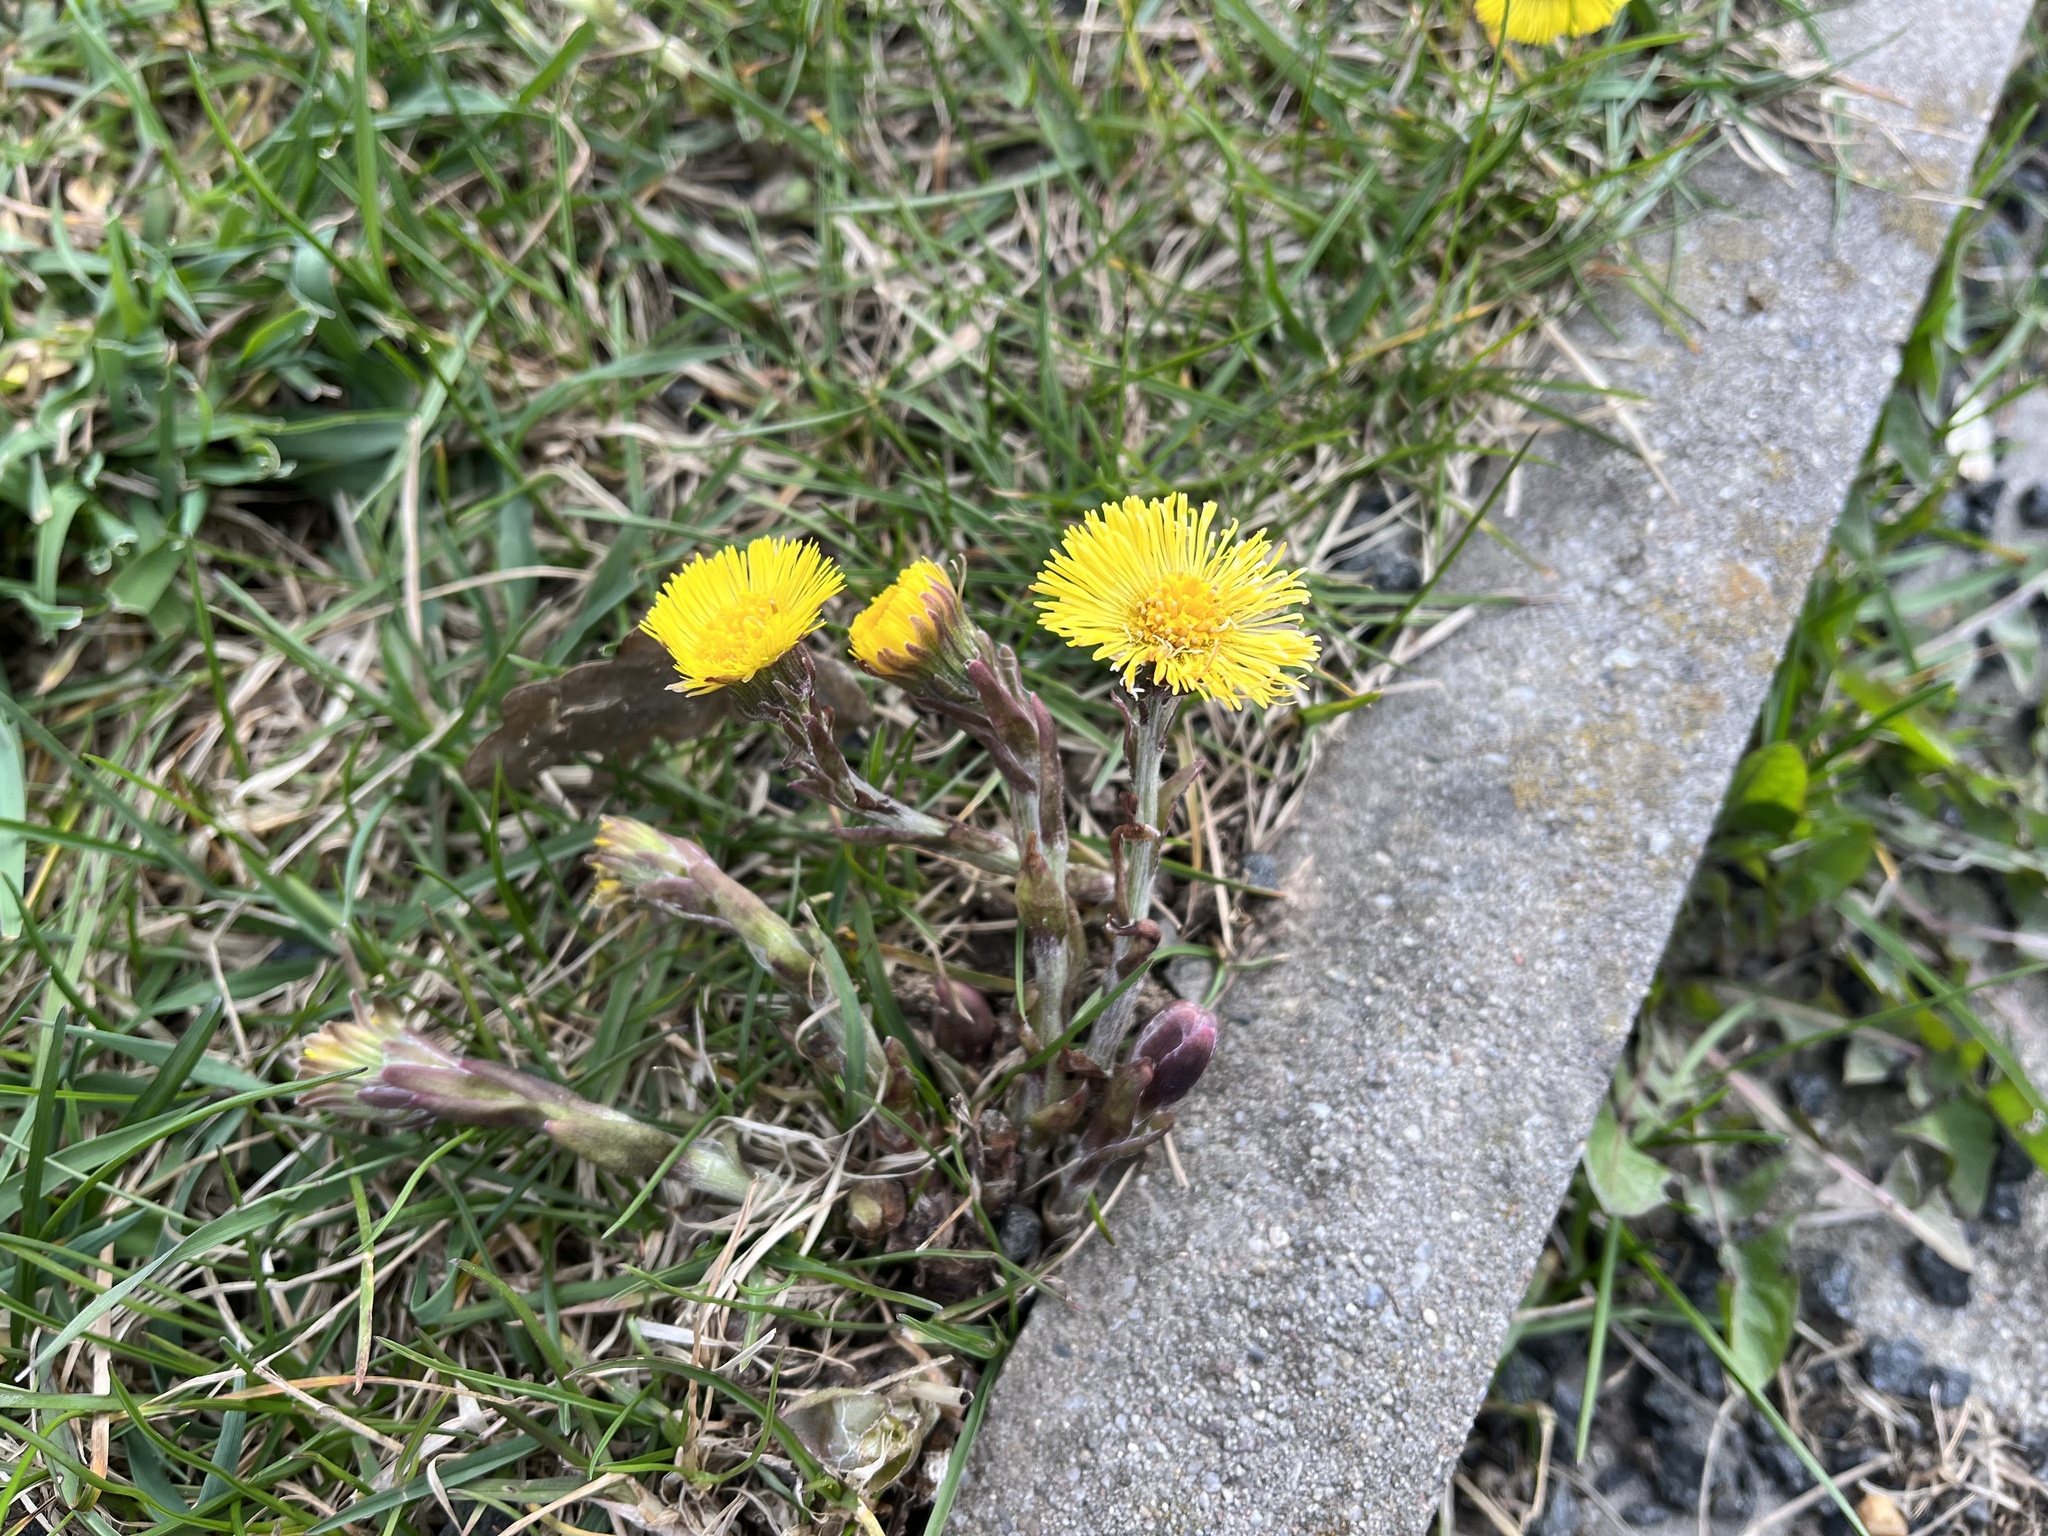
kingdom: Plantae
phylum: Tracheophyta
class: Magnoliopsida
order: Asterales
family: Asteraceae
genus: Tussilago
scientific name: Tussilago farfara
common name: Coltsfoot
